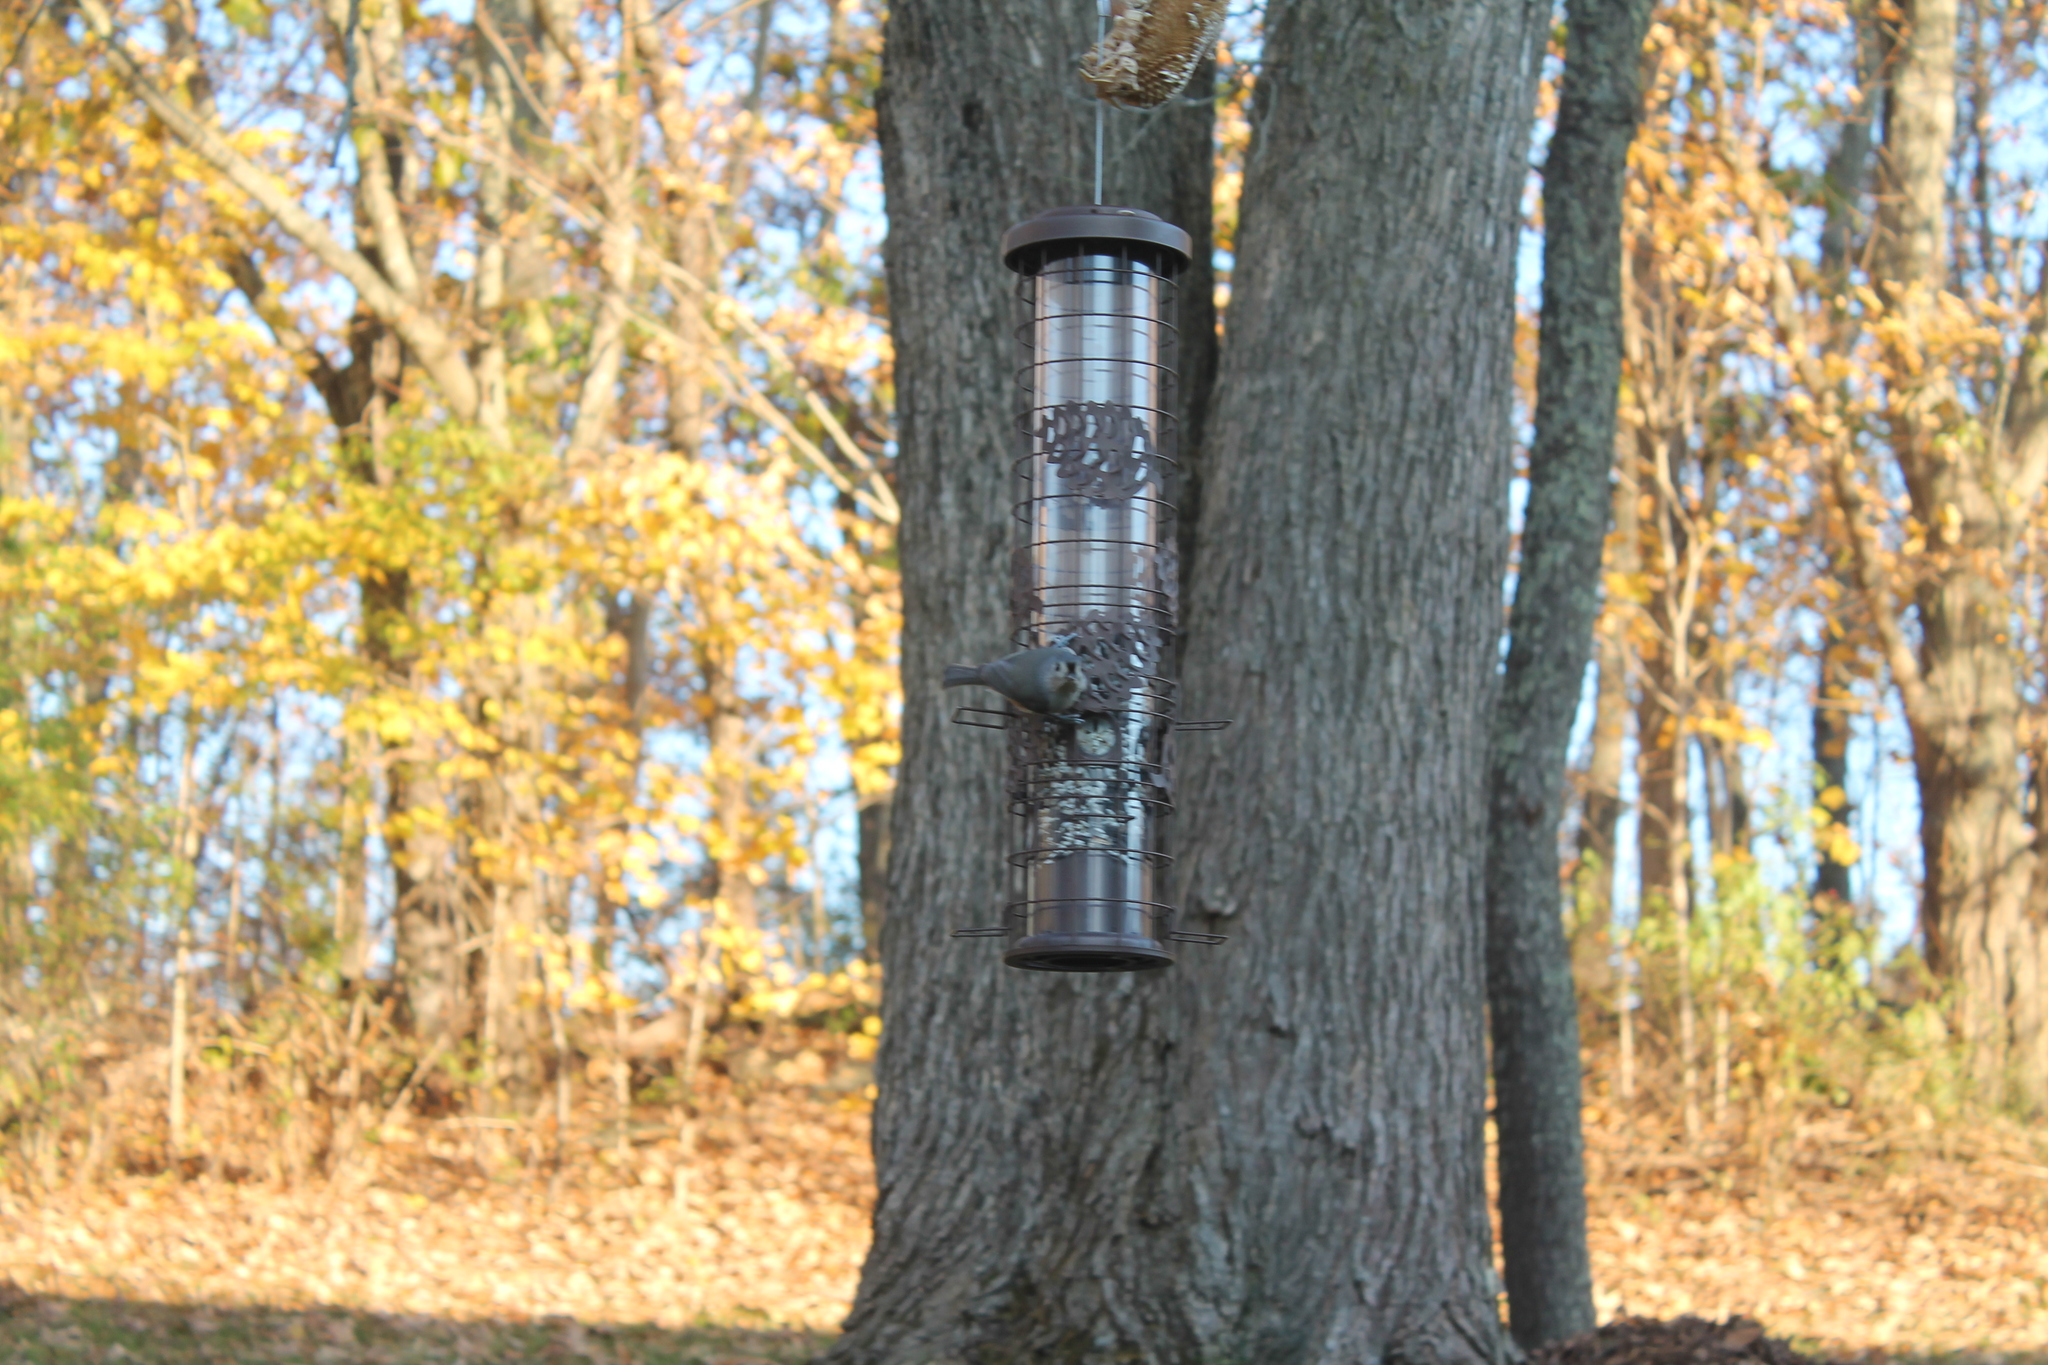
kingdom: Animalia
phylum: Chordata
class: Aves
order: Passeriformes
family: Paridae
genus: Baeolophus
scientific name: Baeolophus bicolor
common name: Tufted titmouse
